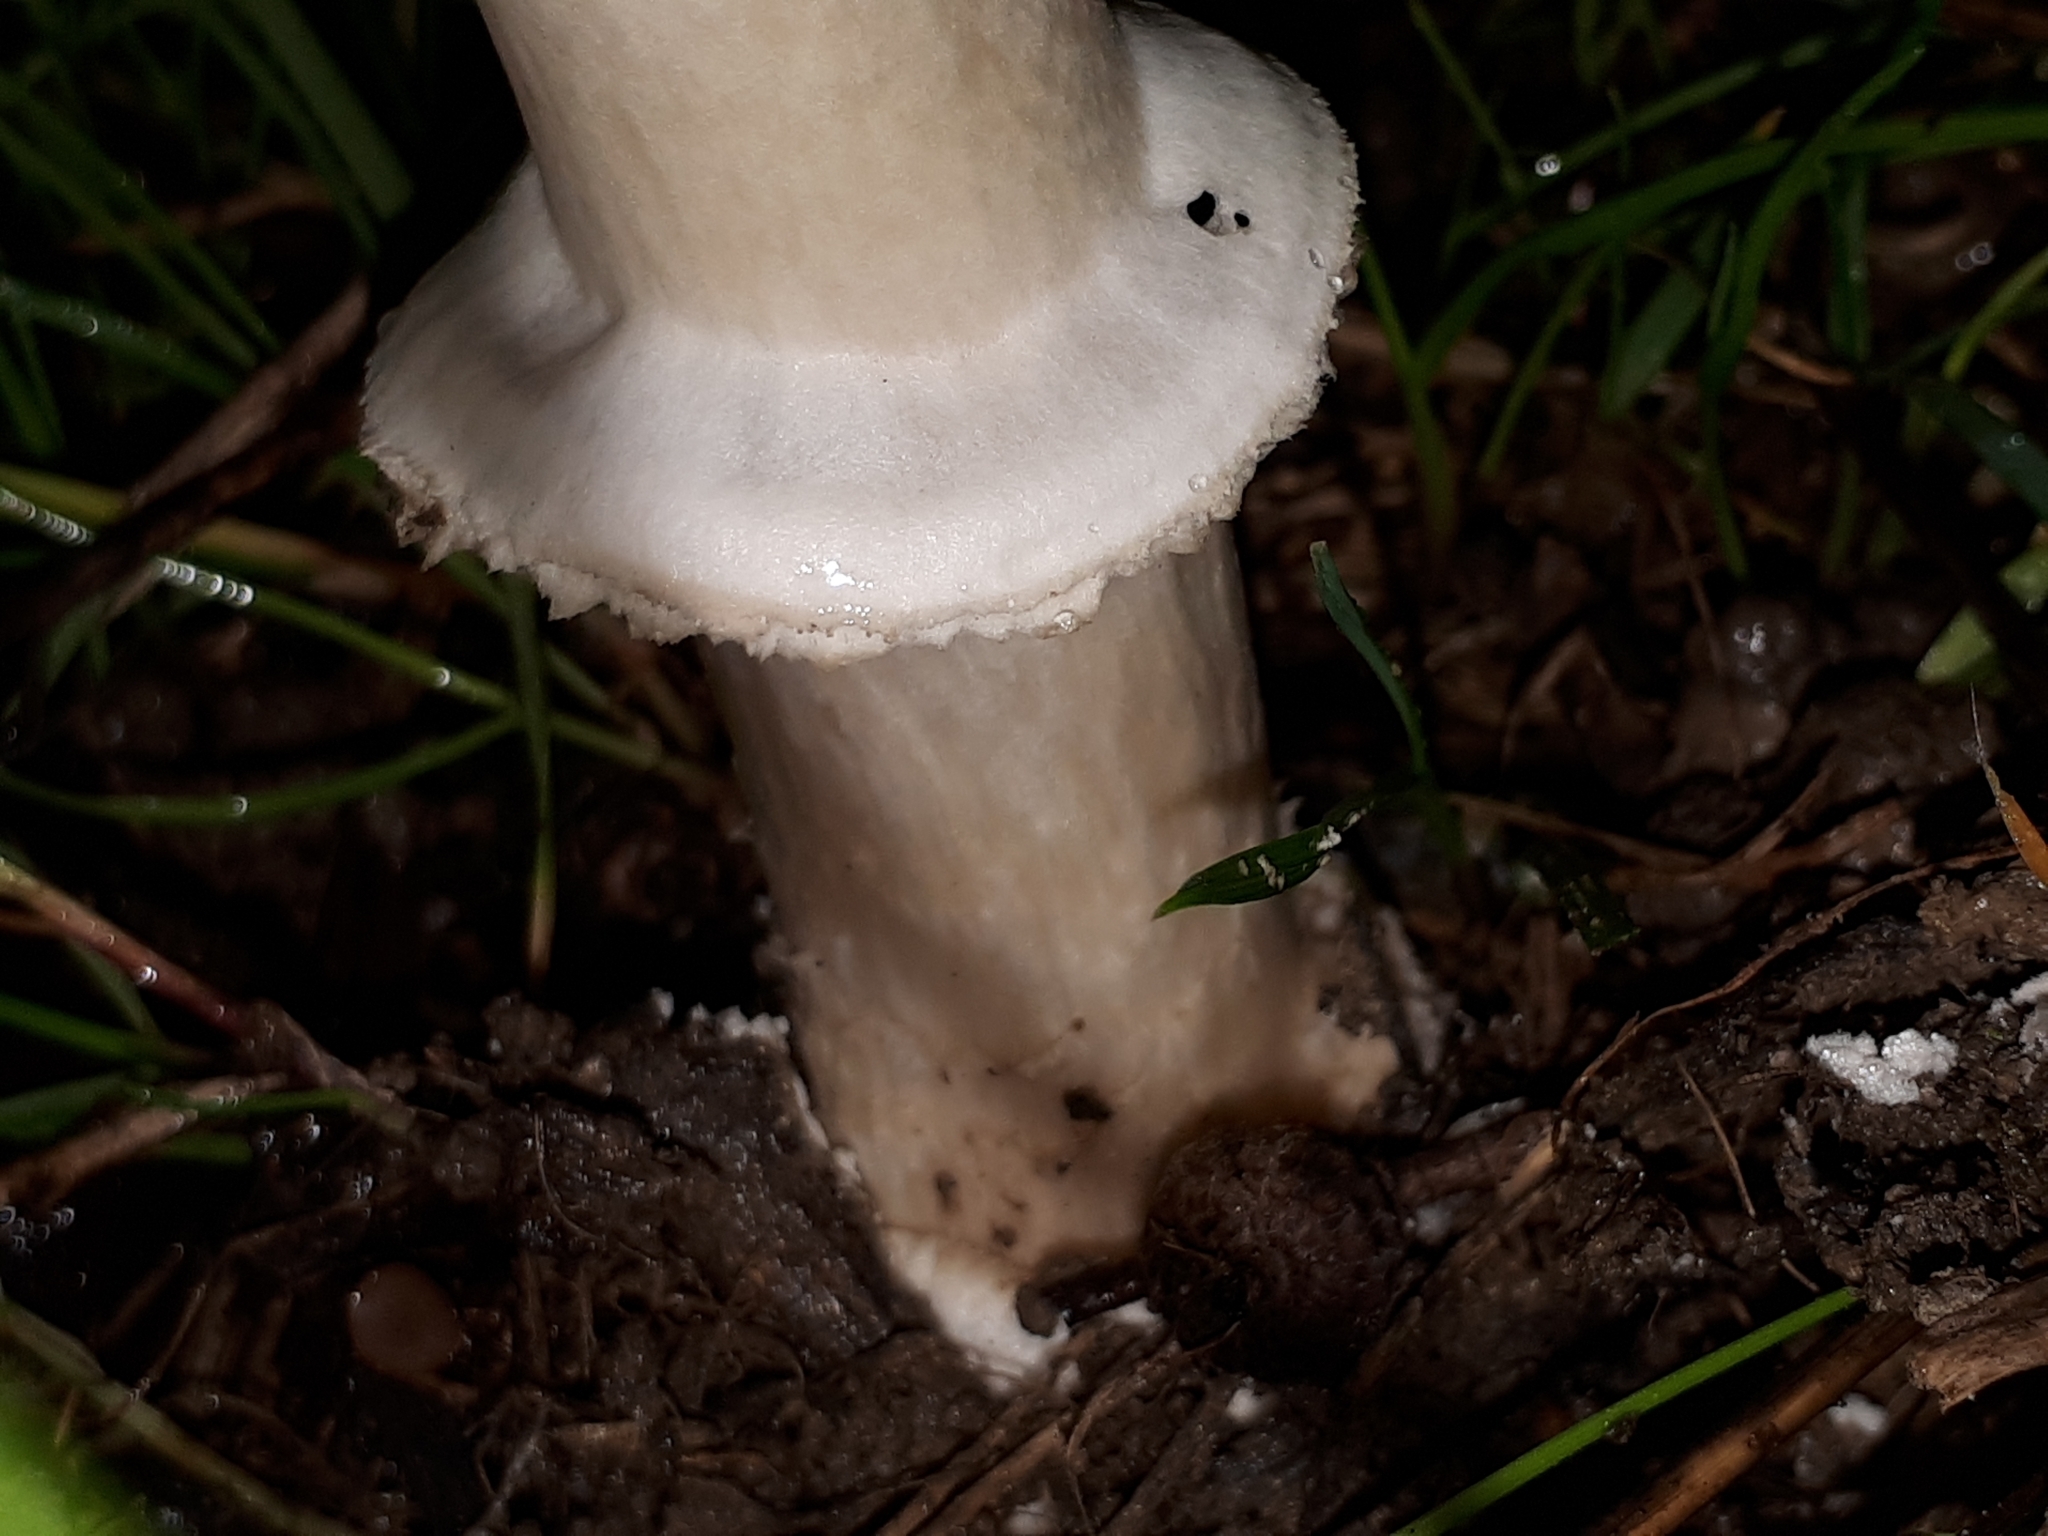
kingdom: Fungi
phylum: Basidiomycota
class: Agaricomycetes
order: Agaricales
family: Amanitaceae
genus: Amanita
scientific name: Amanita pantherina
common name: Panthercap
